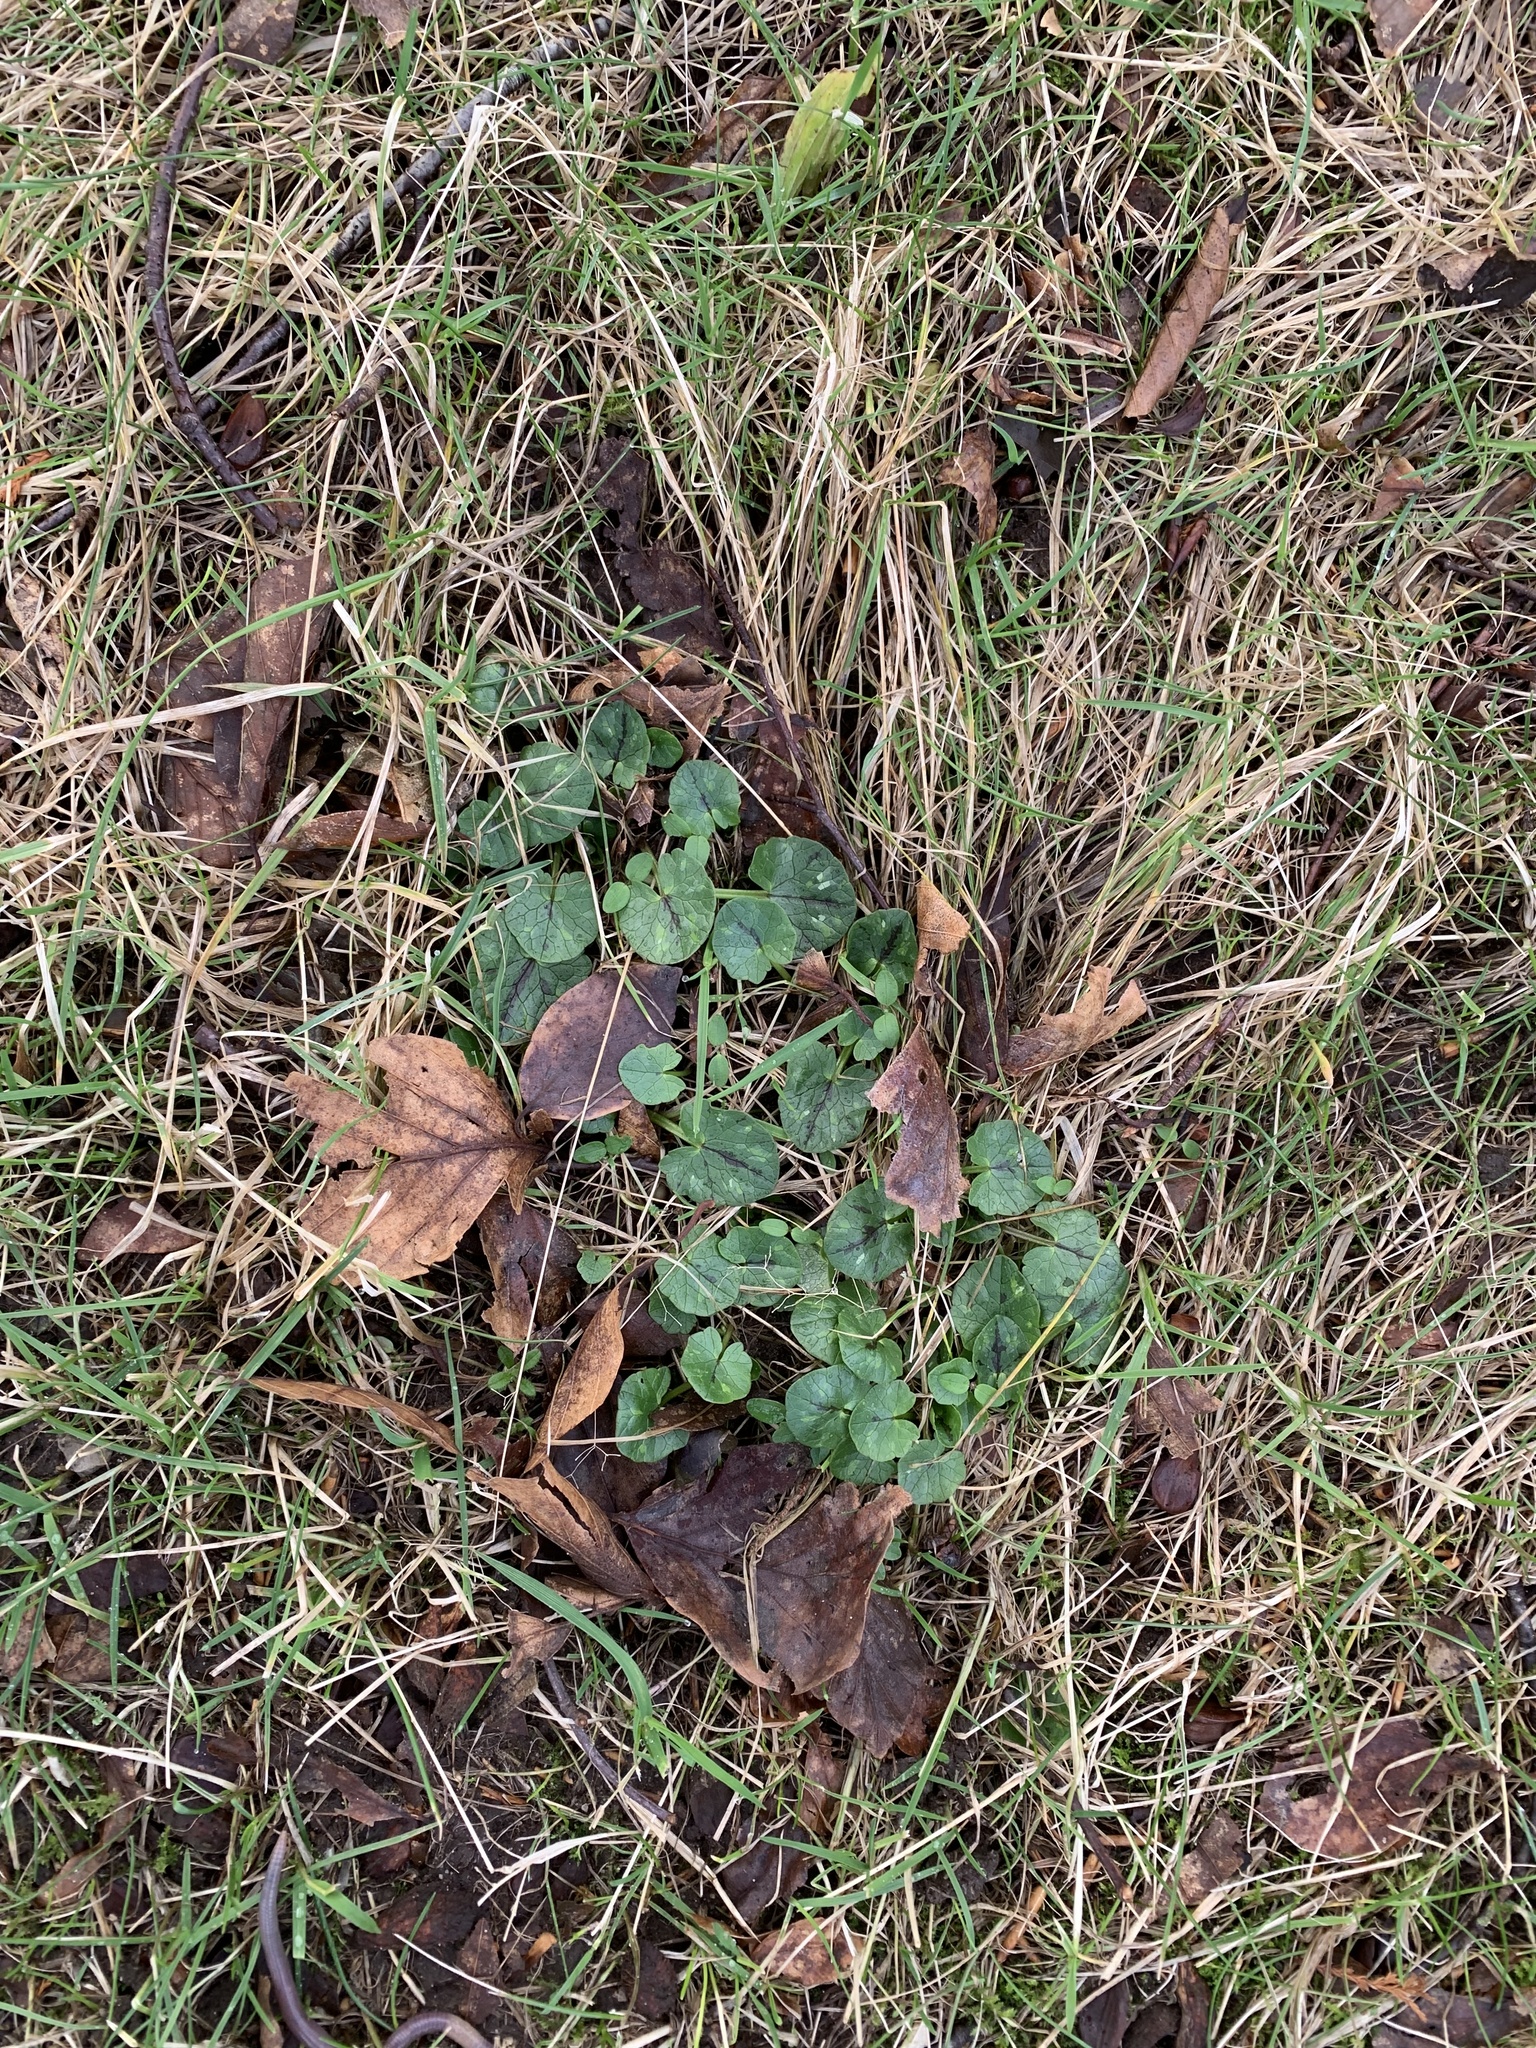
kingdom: Plantae
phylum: Tracheophyta
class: Magnoliopsida
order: Ranunculales
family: Ranunculaceae
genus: Ficaria
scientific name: Ficaria verna
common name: Lesser celandine
